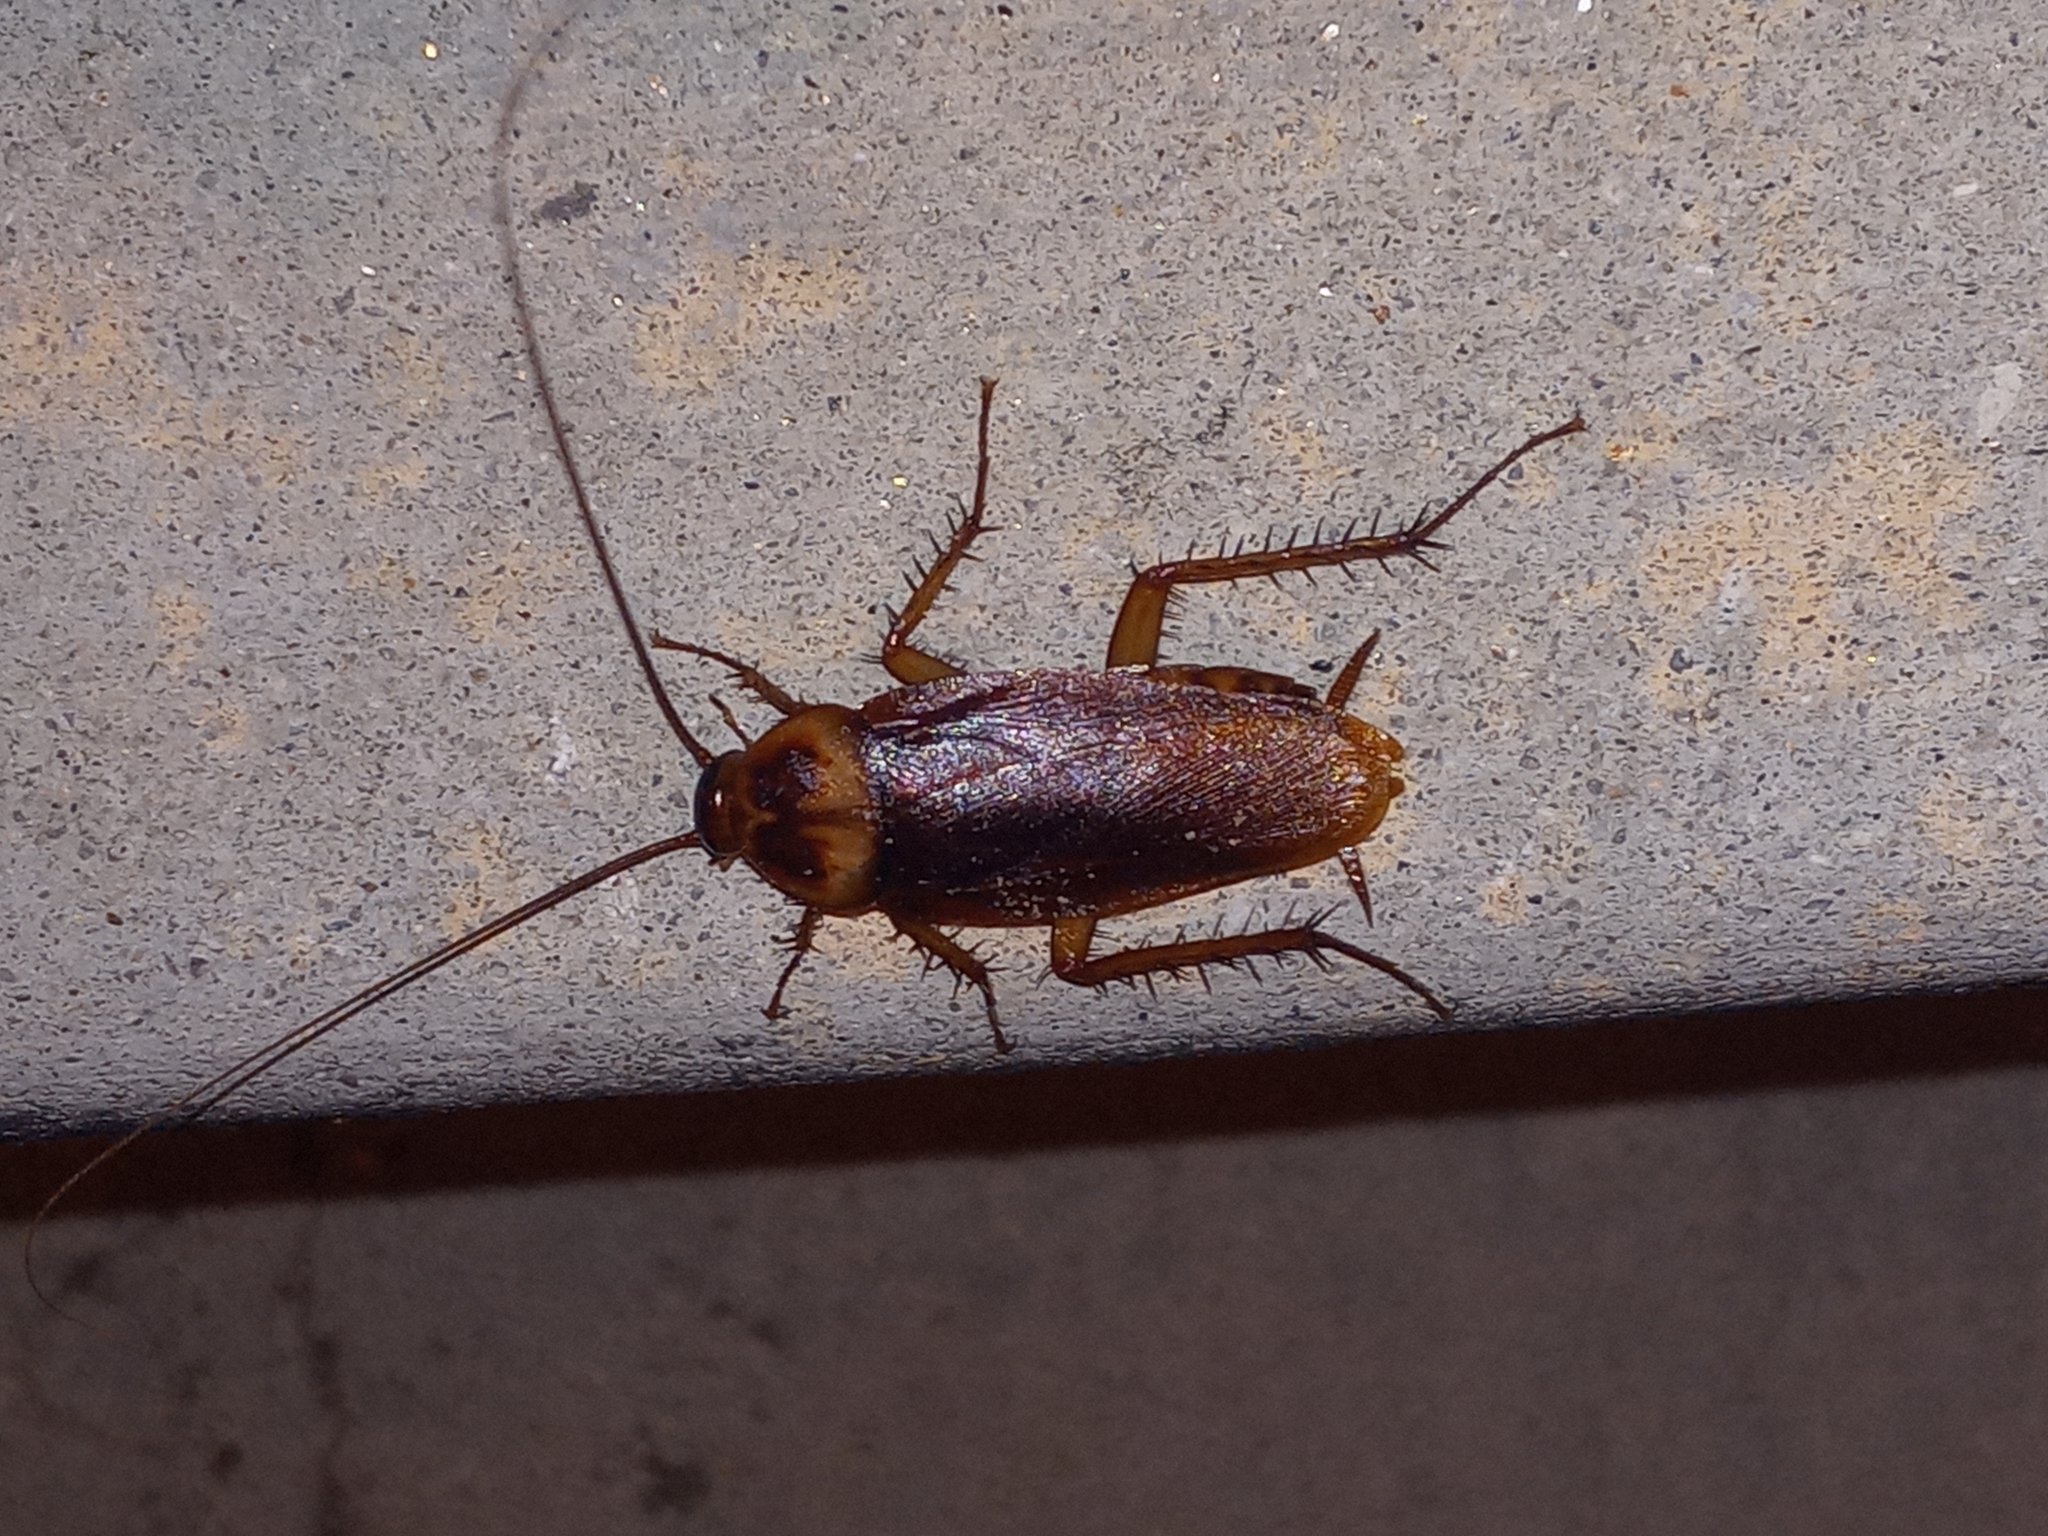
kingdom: Animalia
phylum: Arthropoda
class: Insecta
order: Blattodea
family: Blattidae
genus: Periplaneta
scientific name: Periplaneta americana
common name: American cockroach
